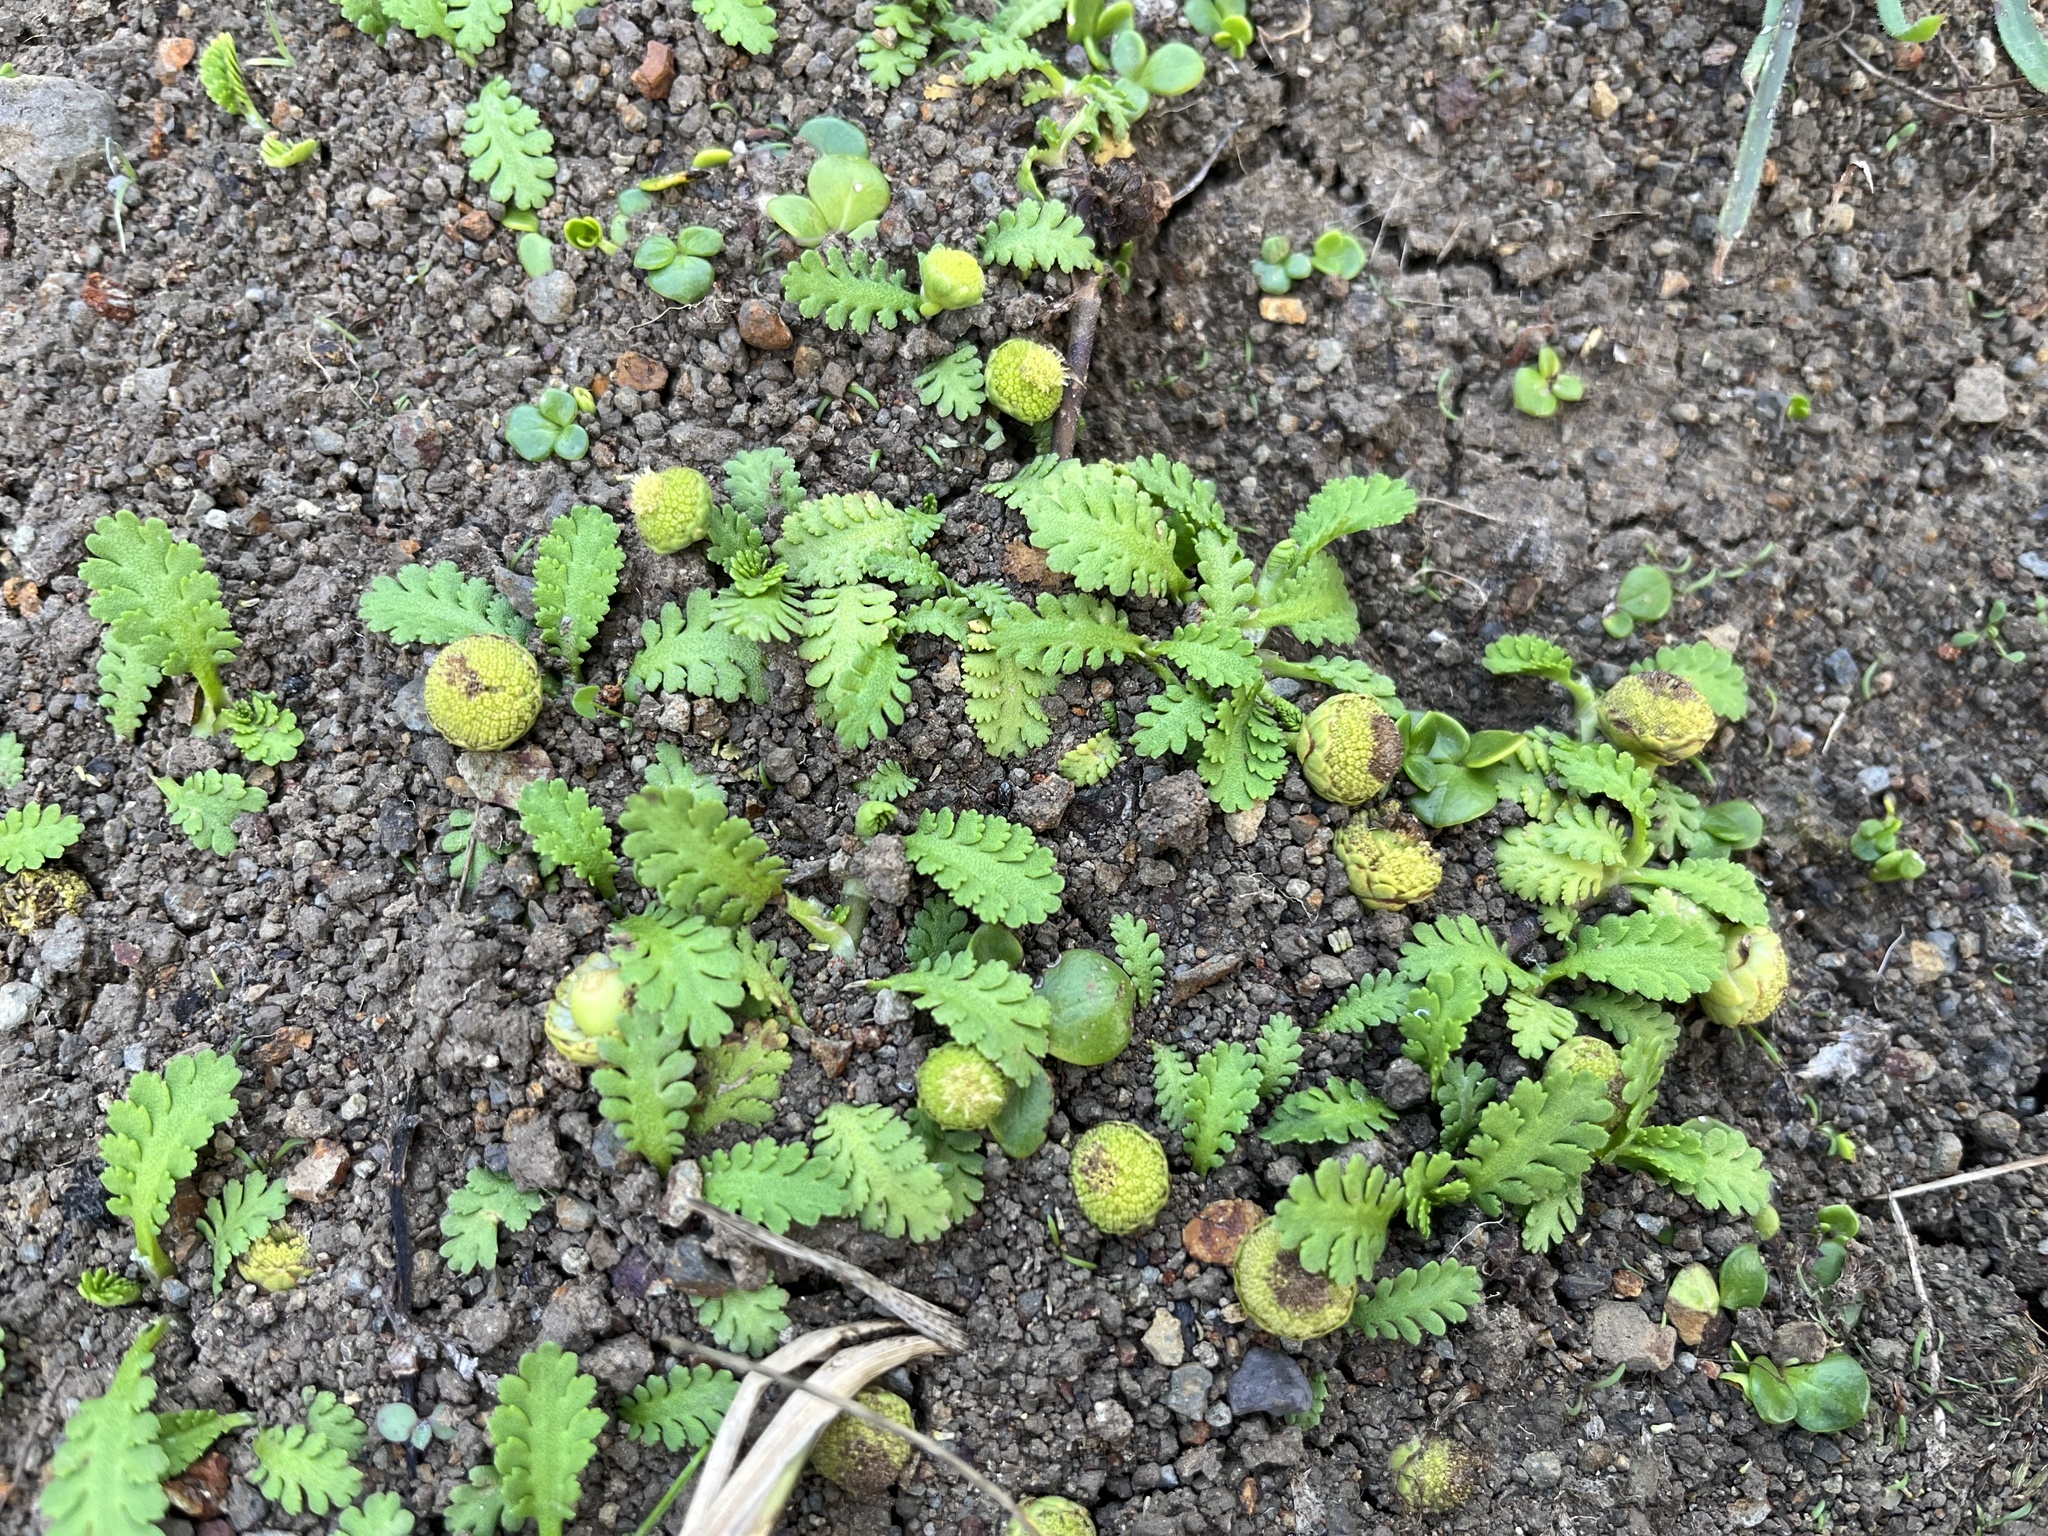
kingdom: Plantae
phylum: Tracheophyta
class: Magnoliopsida
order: Asterales
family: Asteraceae
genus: Leptinella
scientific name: Leptinella potentillina
